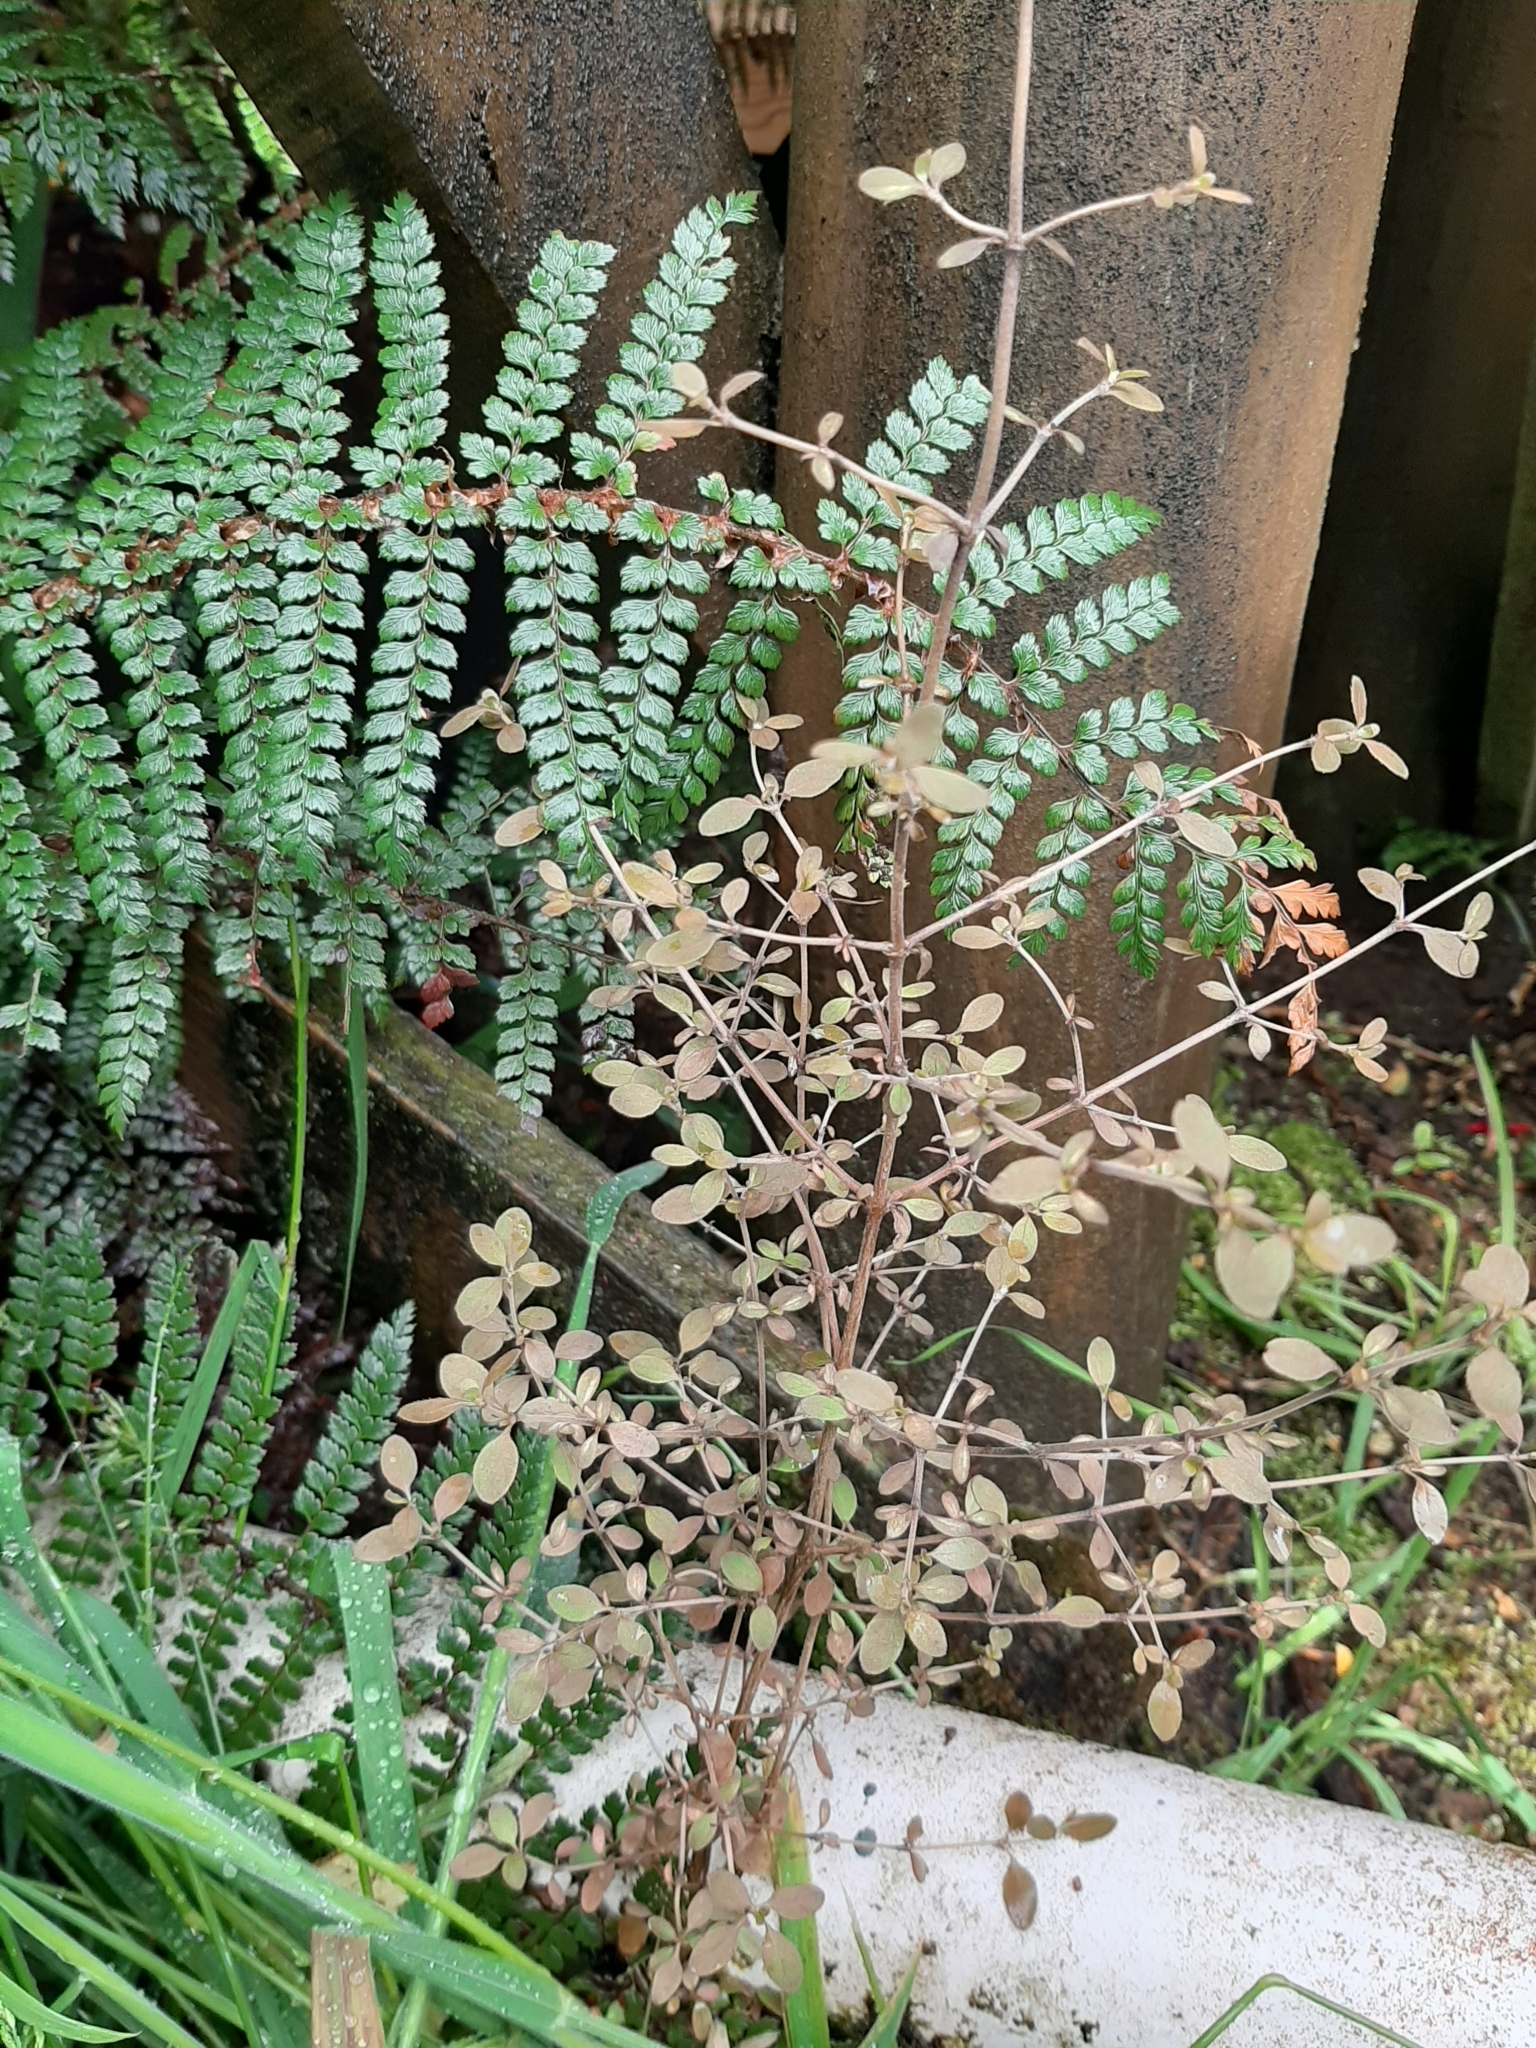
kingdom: Plantae
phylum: Tracheophyta
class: Magnoliopsida
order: Gentianales
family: Rubiaceae
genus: Coprosma
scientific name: Coprosma rhamnoides
